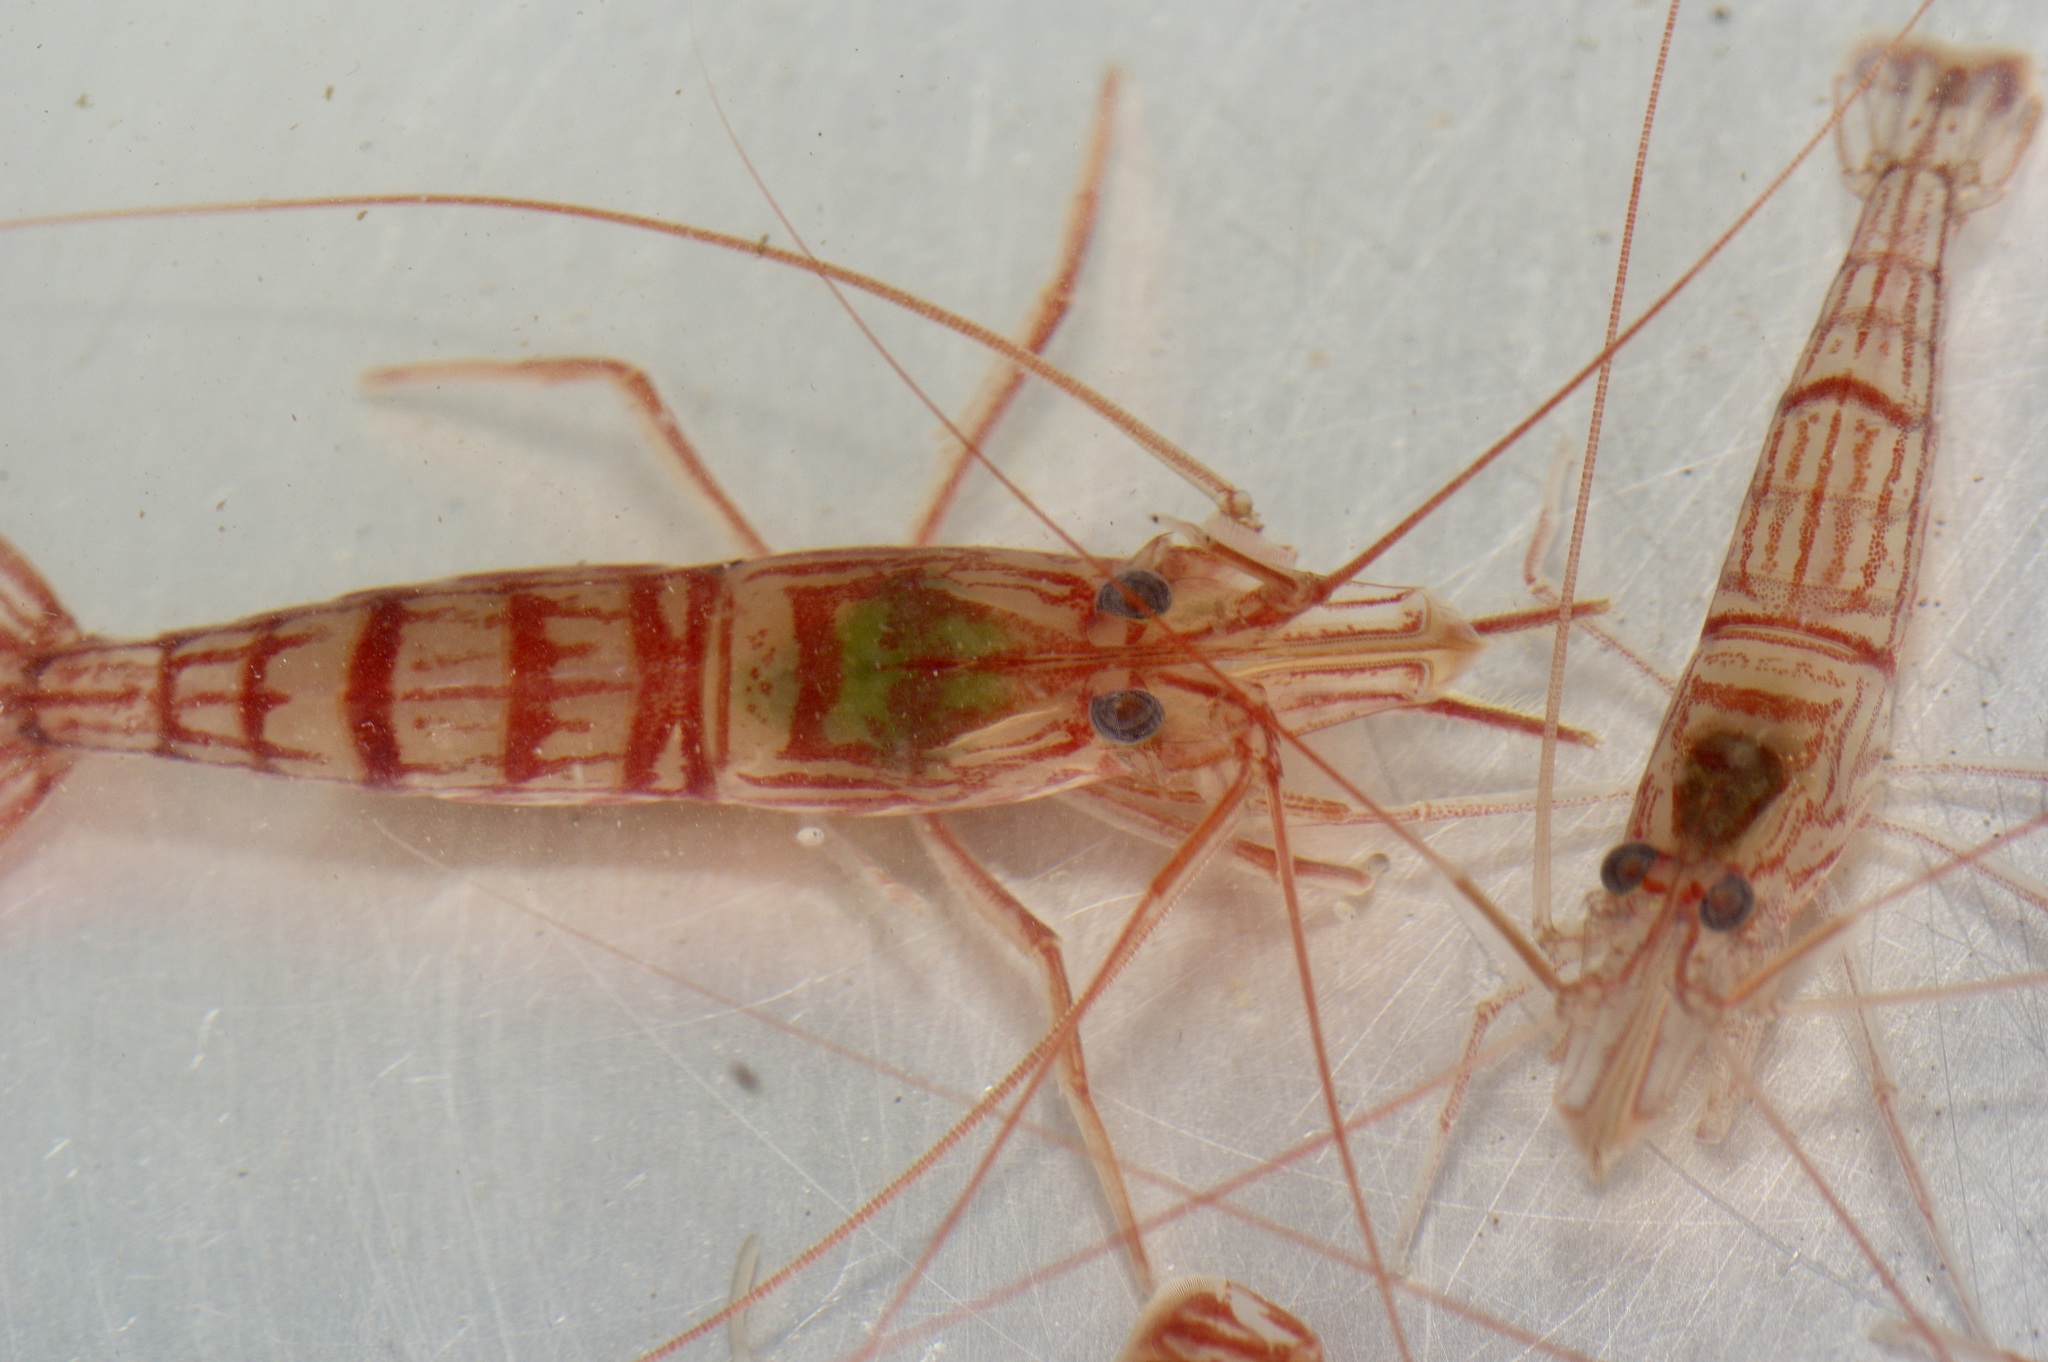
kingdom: Animalia
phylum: Arthropoda
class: Malacostraca
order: Decapoda
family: Lysmatidae
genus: Lysmata
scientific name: Lysmata wurdemanni
